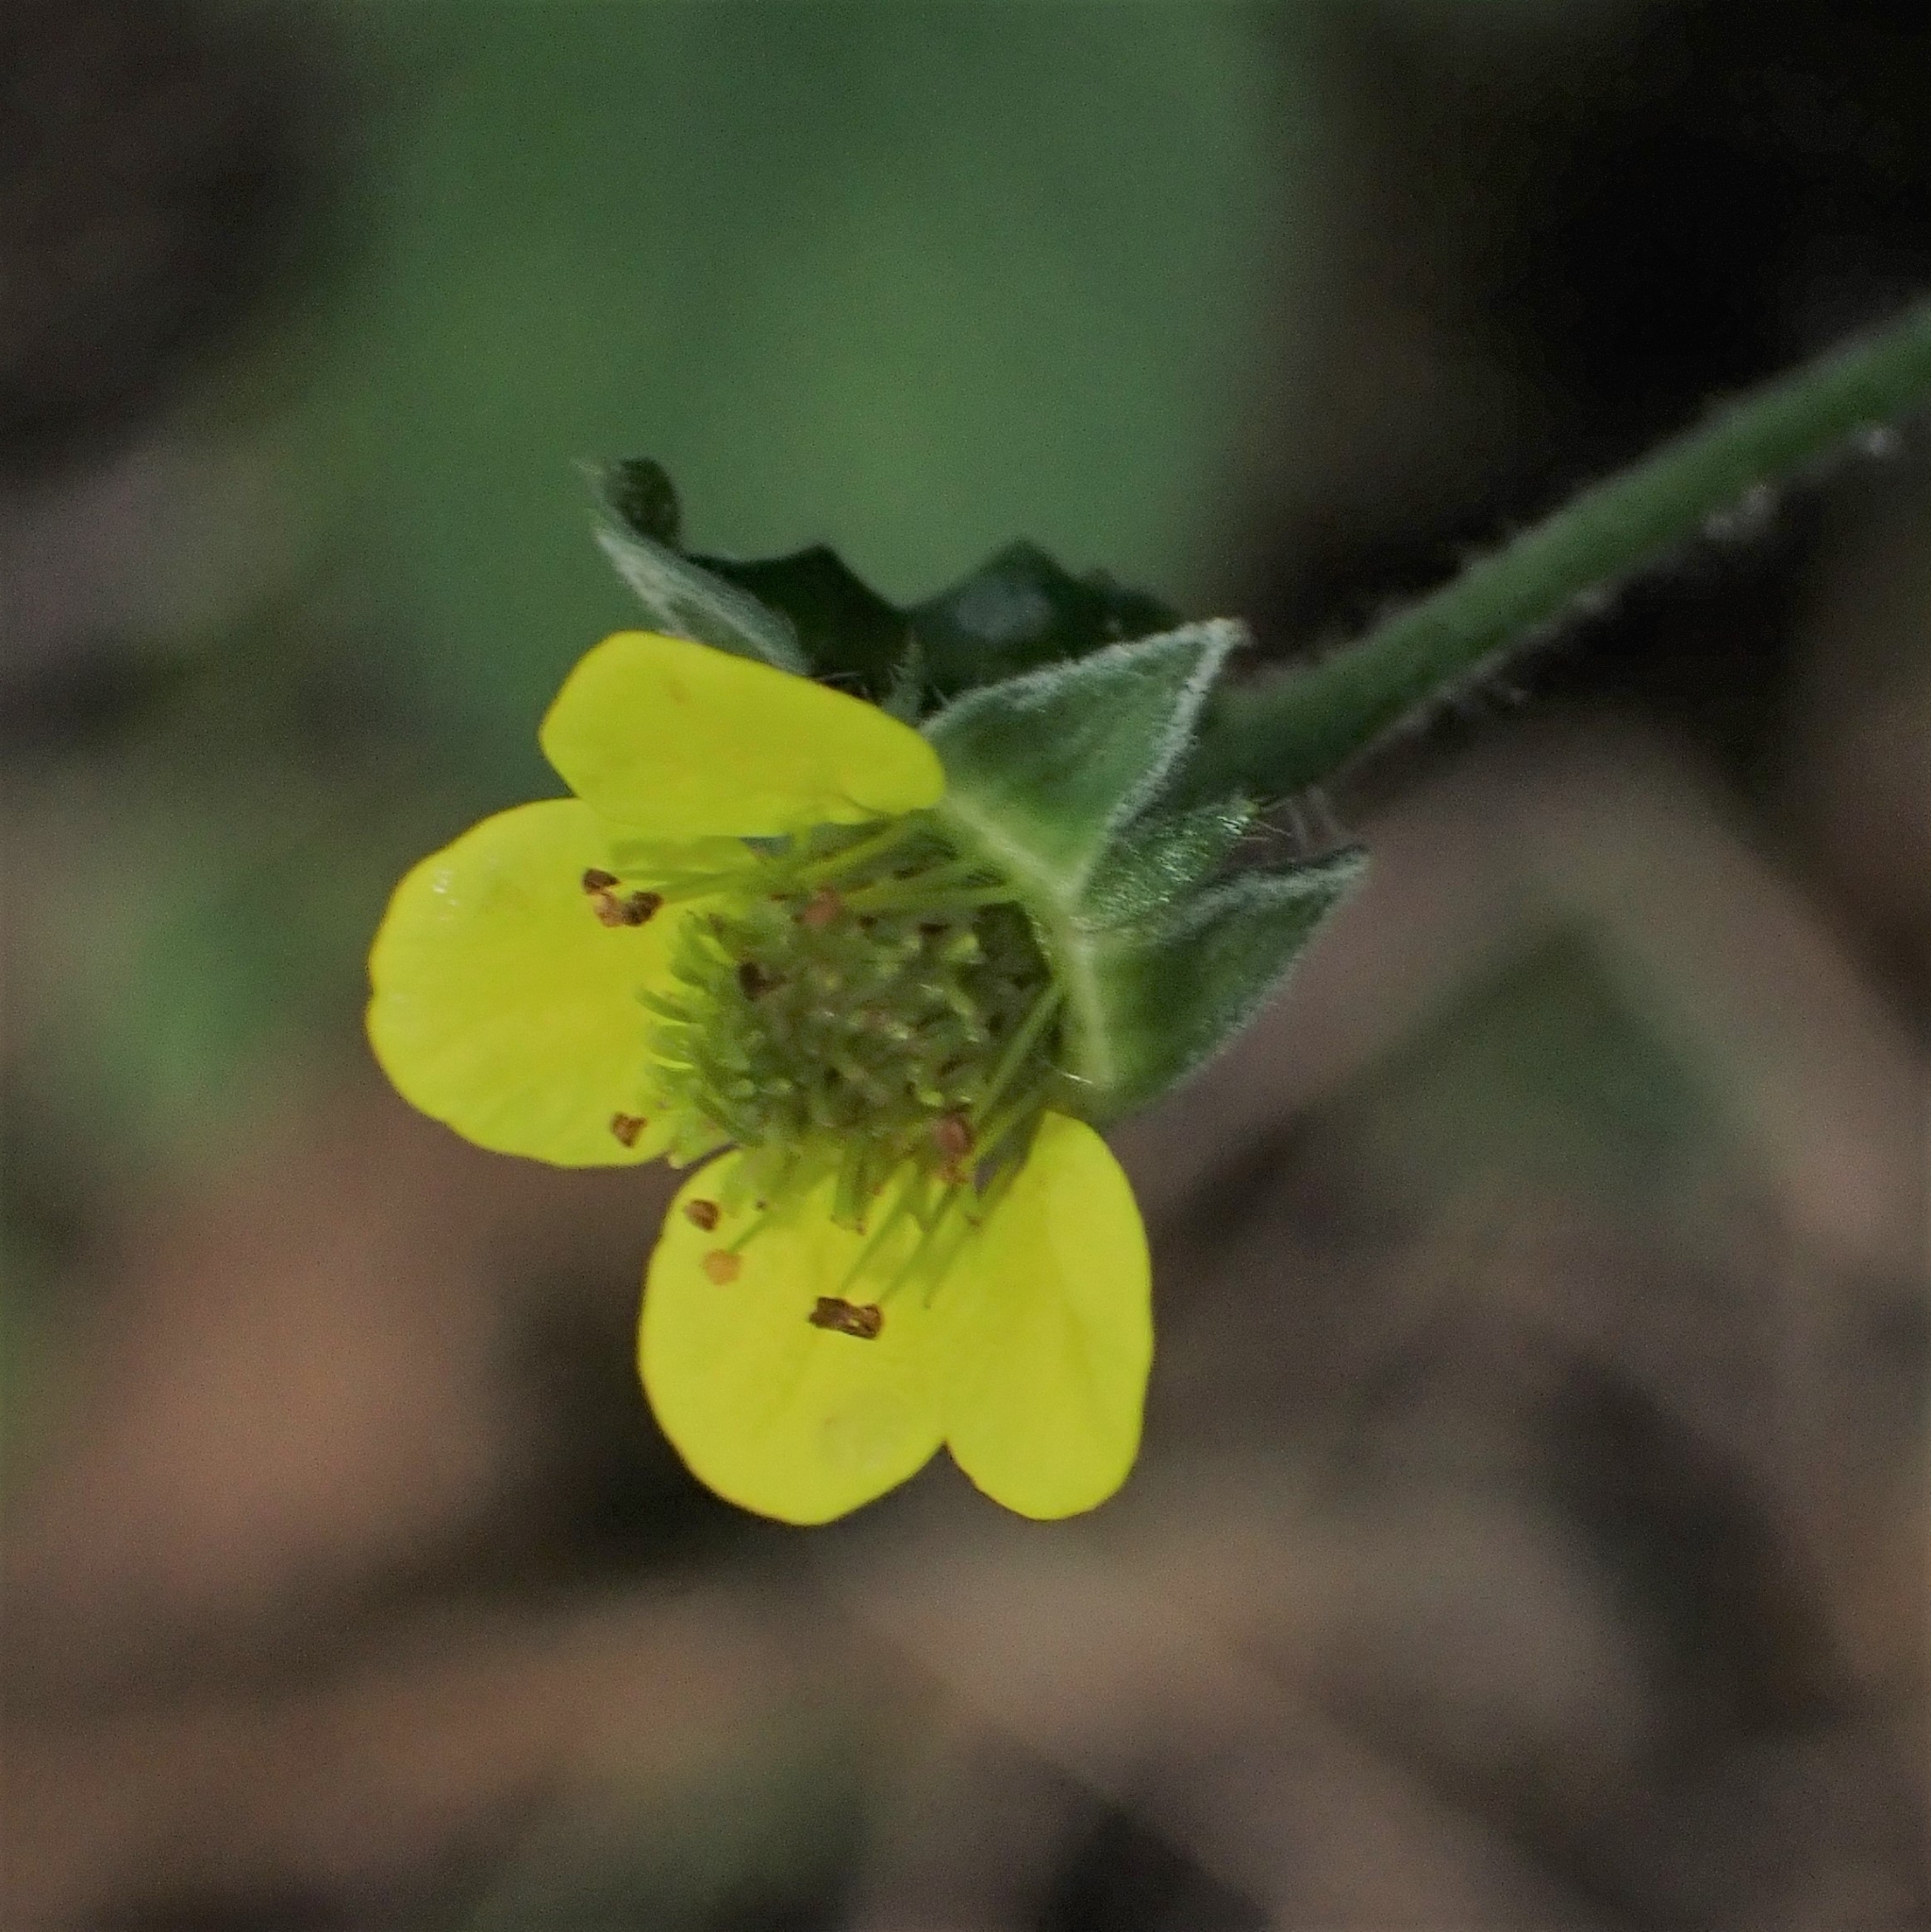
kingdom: Plantae
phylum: Tracheophyta
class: Magnoliopsida
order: Rosales
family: Rosaceae
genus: Geum
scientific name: Geum urbanum
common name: Wood avens
